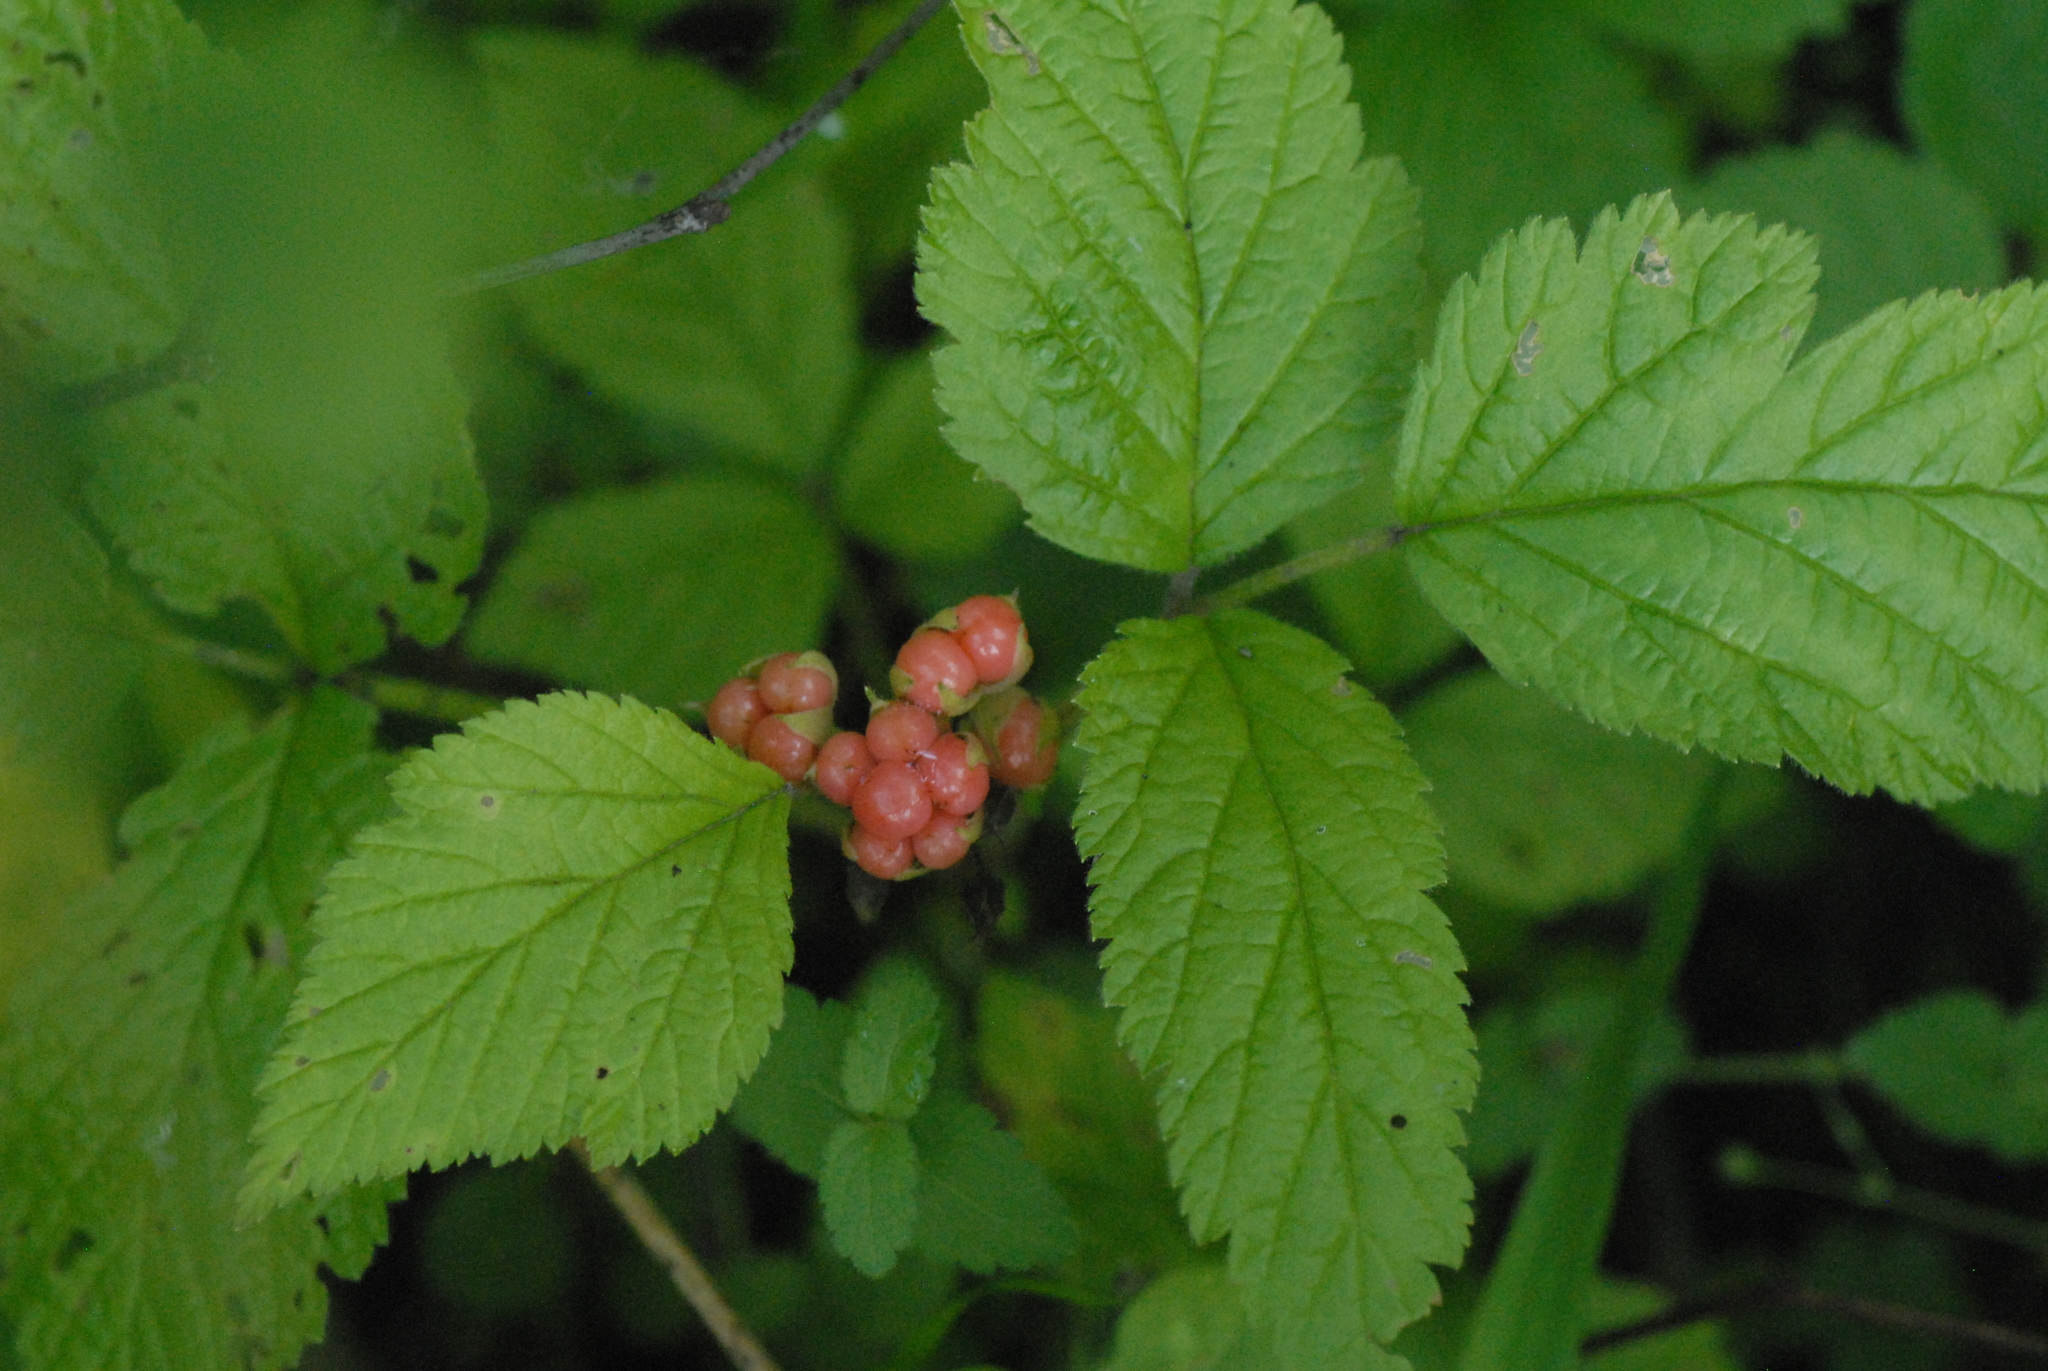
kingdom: Plantae
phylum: Tracheophyta
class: Magnoliopsida
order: Rosales
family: Rosaceae
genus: Rubus
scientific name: Rubus saxatilis
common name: Stone bramble
